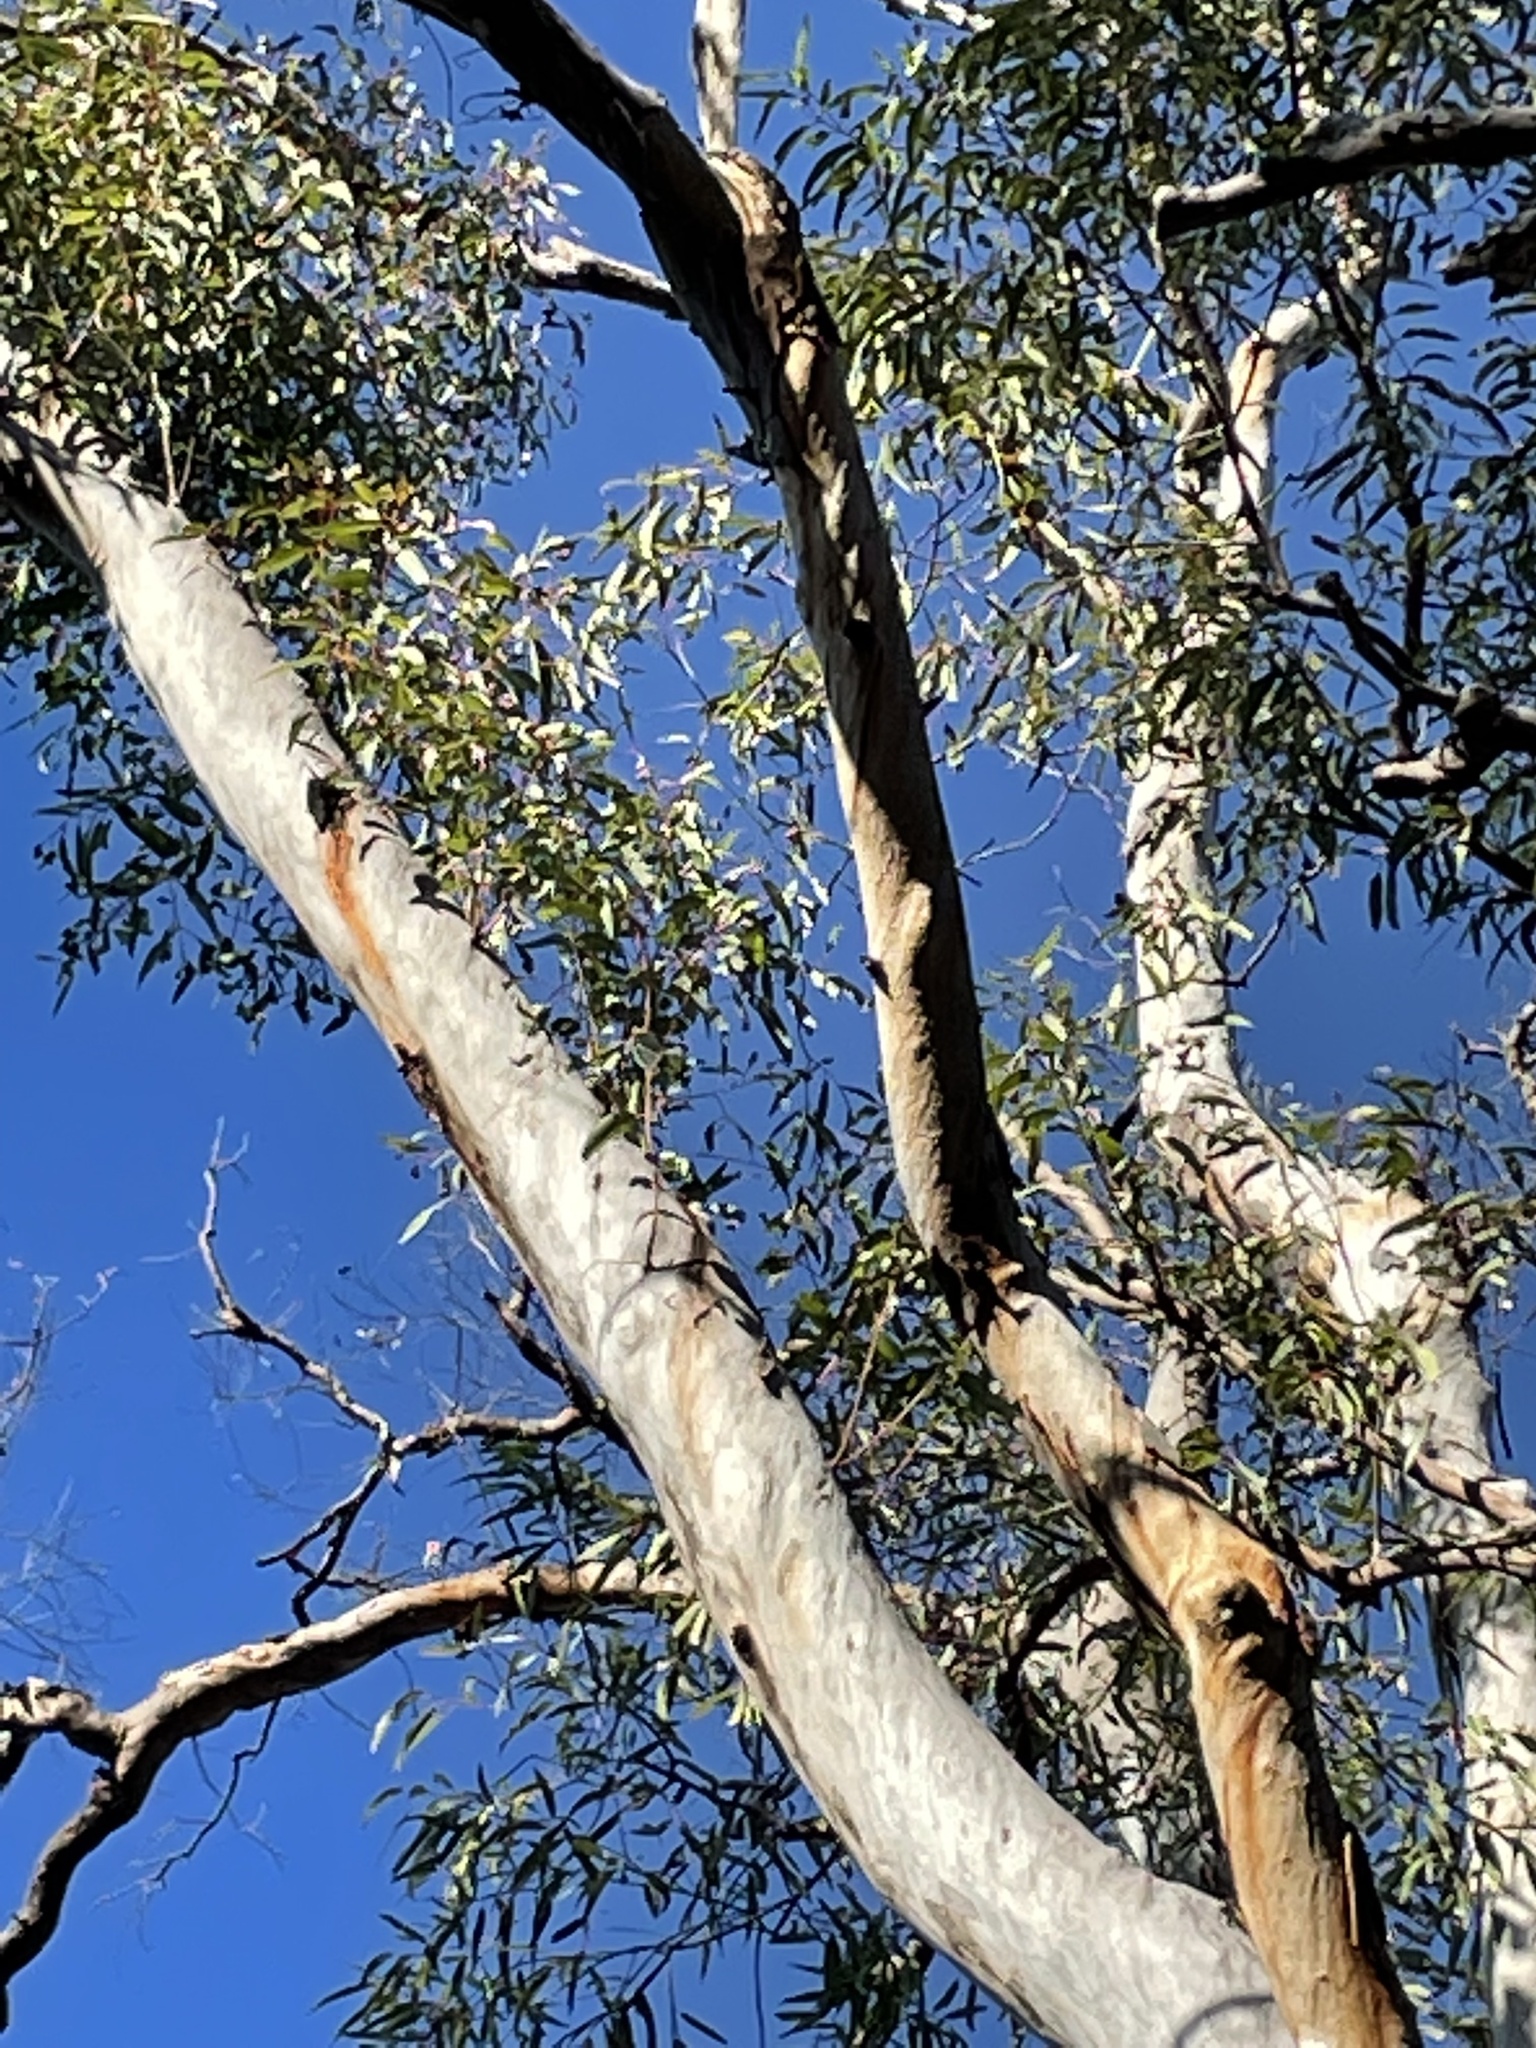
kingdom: Plantae
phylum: Tracheophyta
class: Magnoliopsida
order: Myrtales
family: Myrtaceae
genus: Eucalyptus
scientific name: Eucalyptus chloroclada
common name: Baradine red gum
